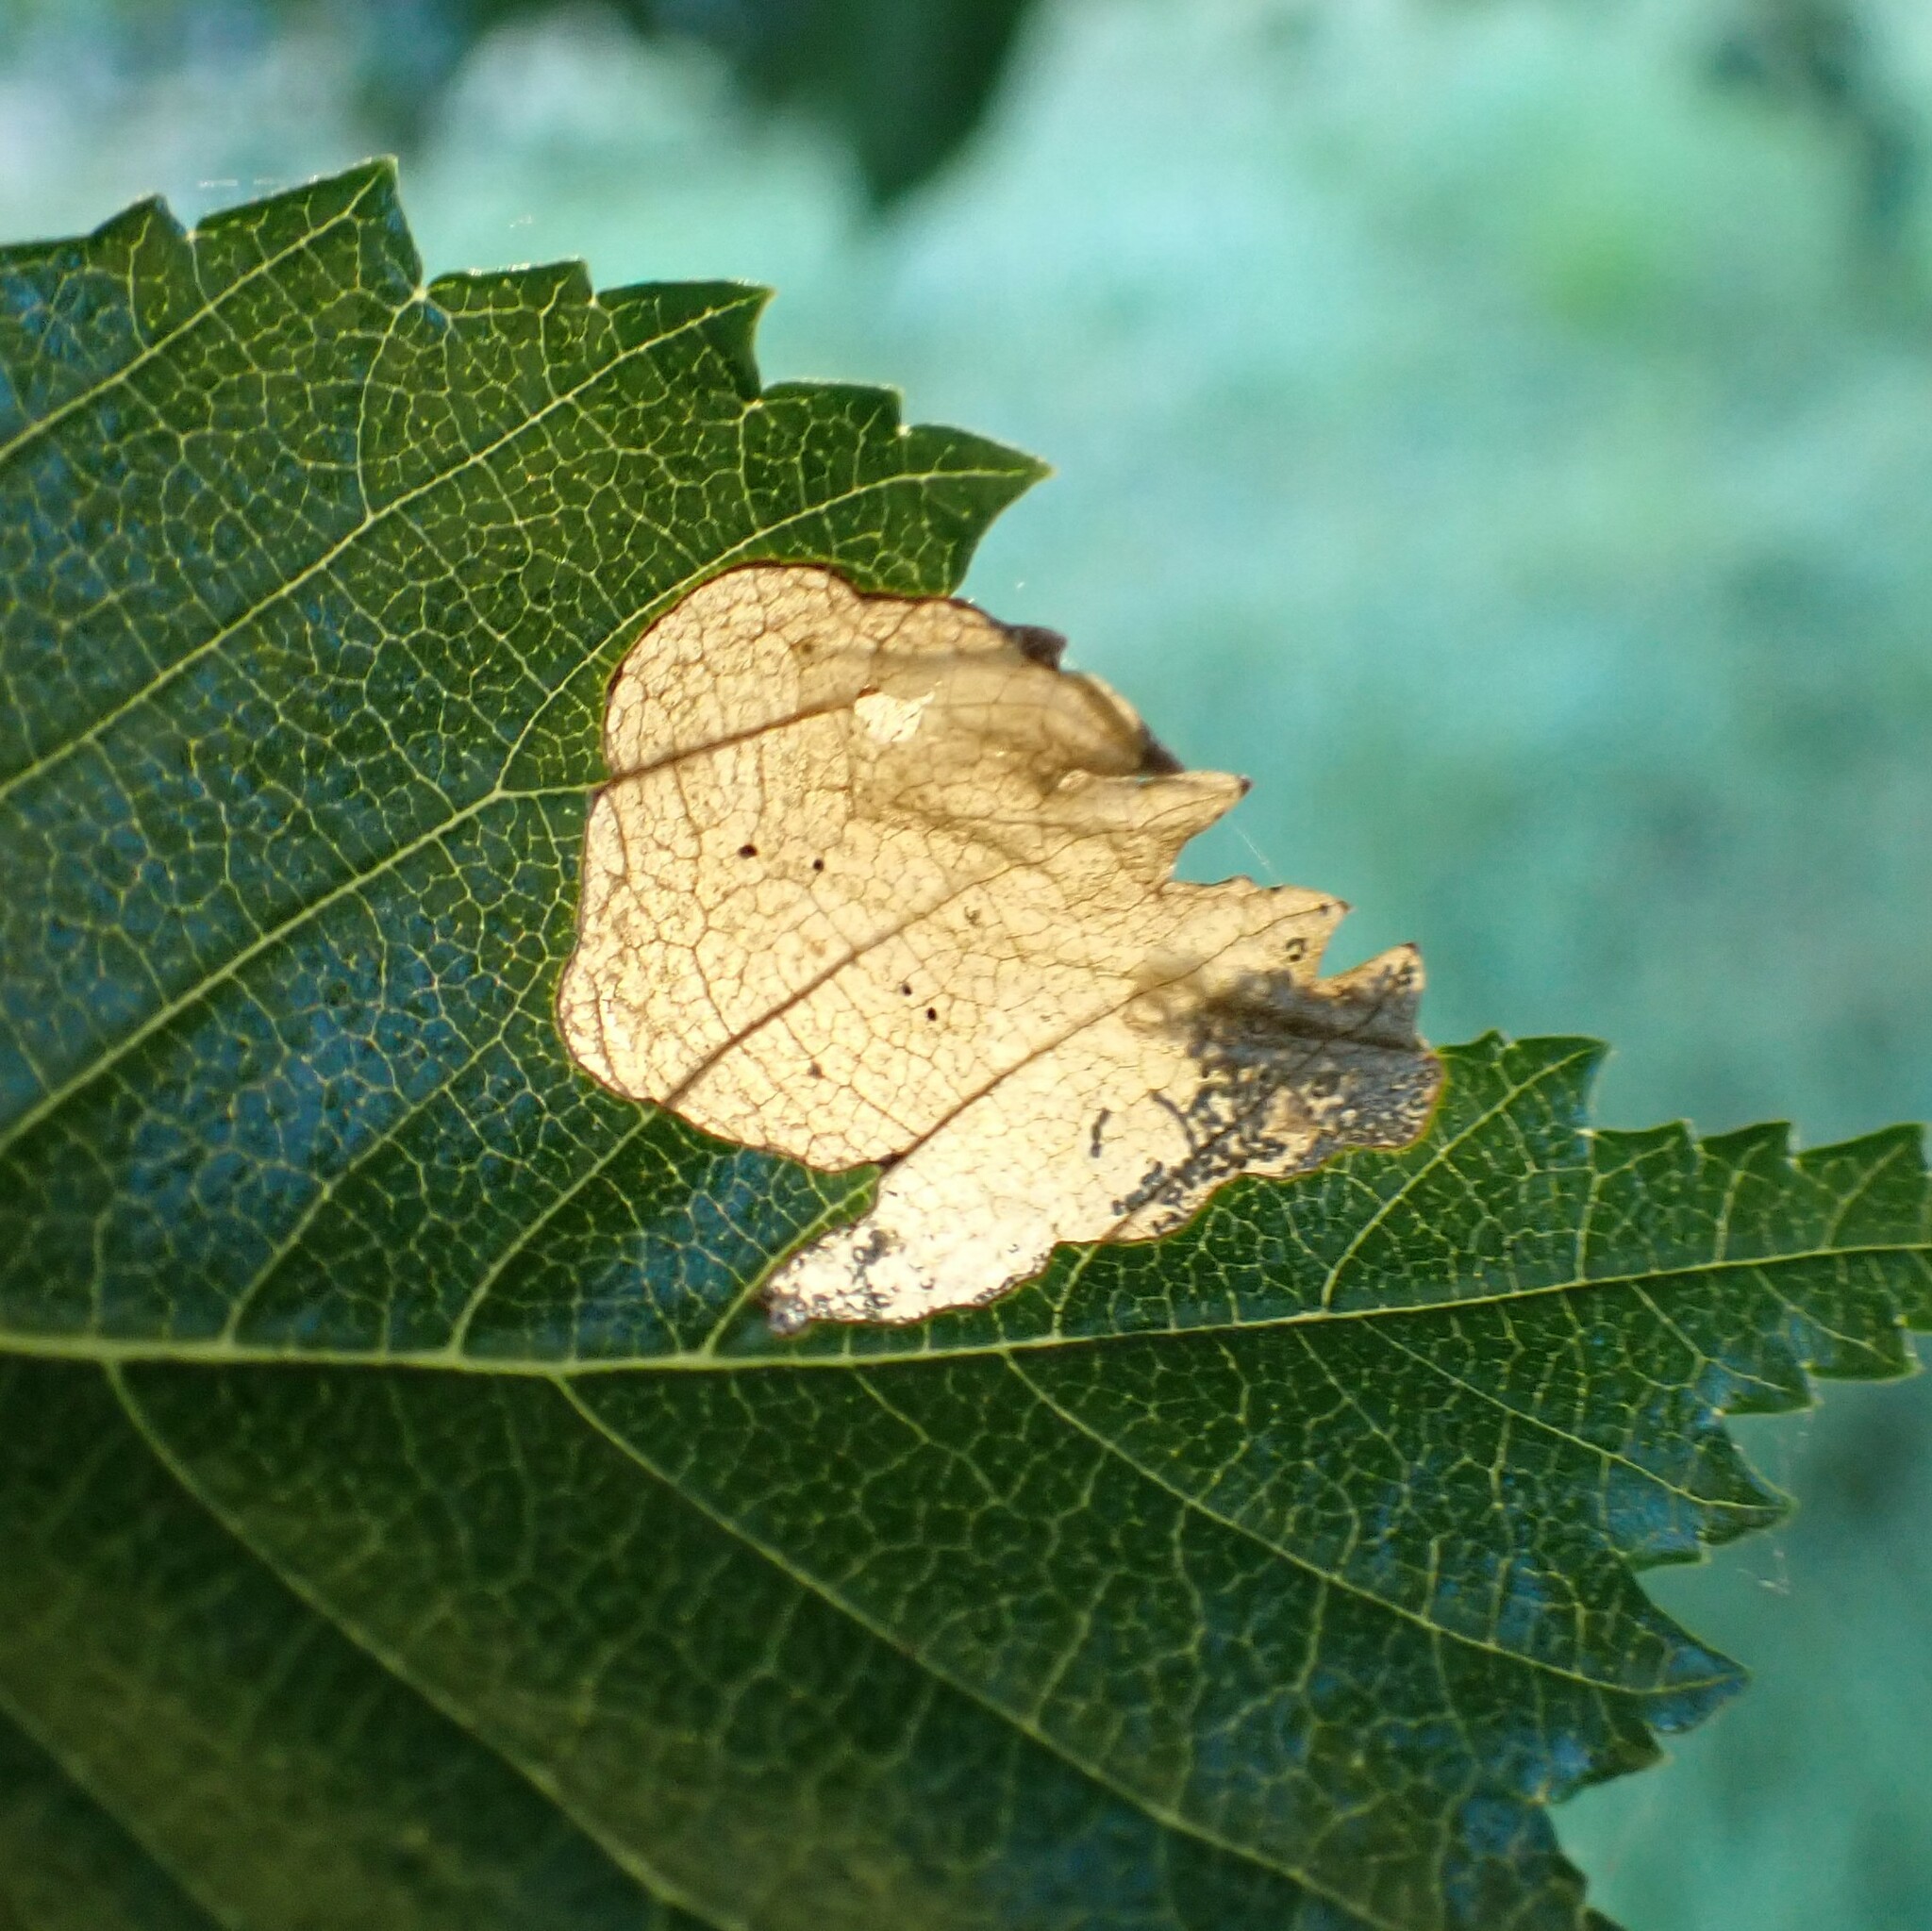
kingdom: Animalia
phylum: Arthropoda
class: Insecta
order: Hymenoptera
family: Tenthredinidae
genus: Fenusa
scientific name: Fenusa ulmi
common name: Elm leafminer
